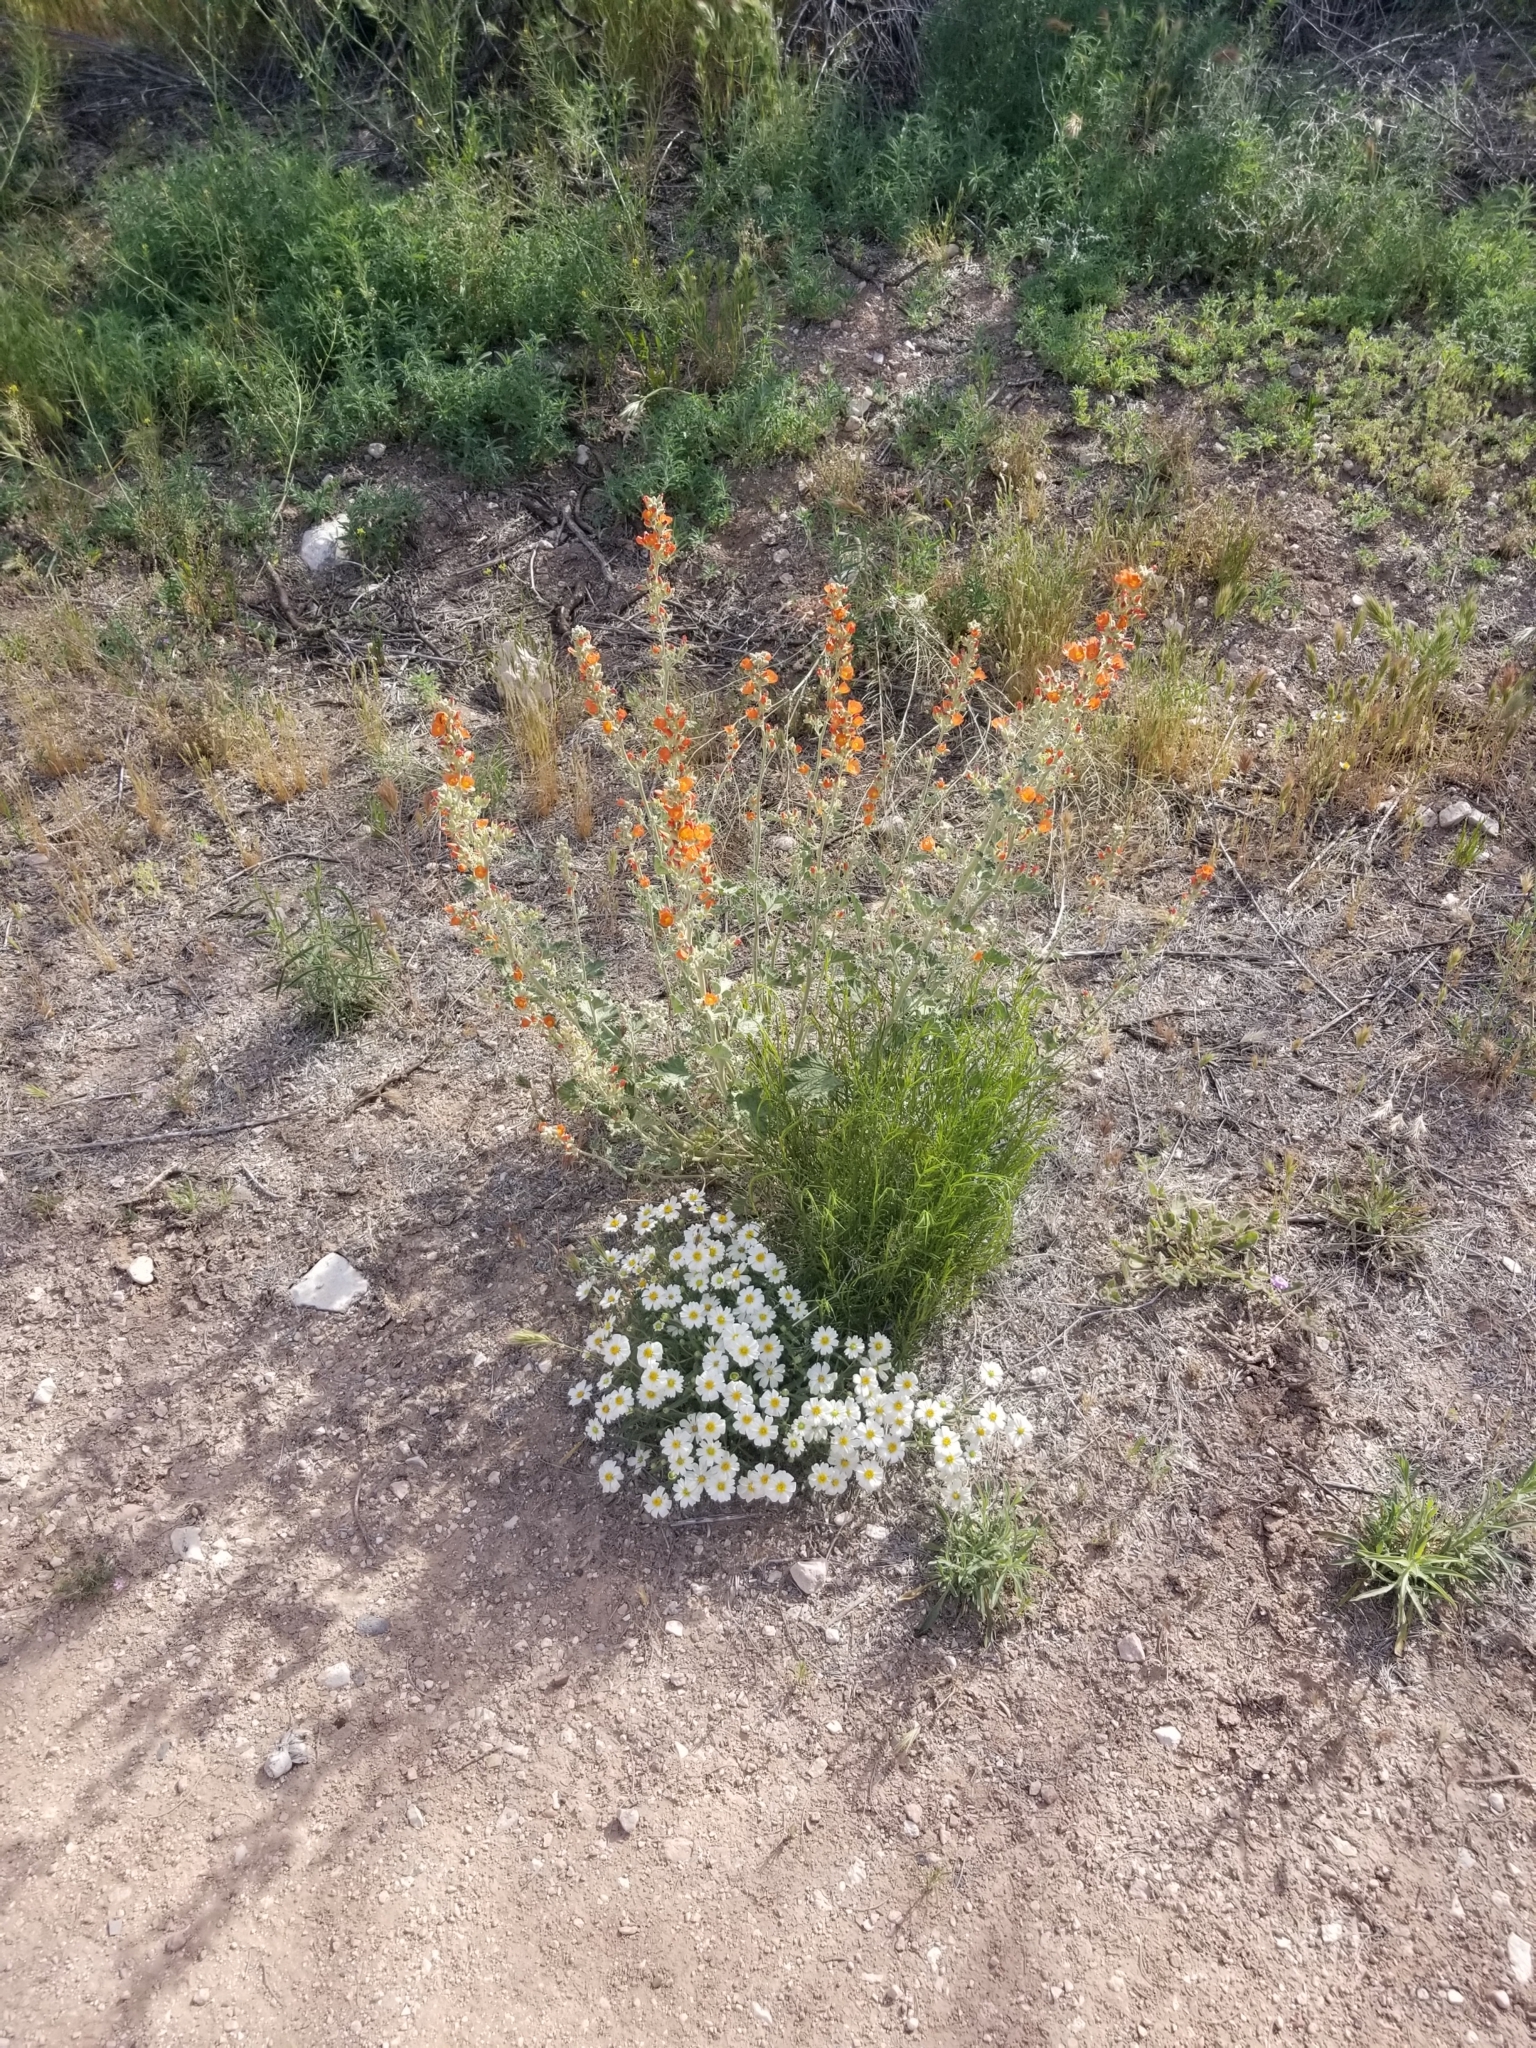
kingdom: Plantae
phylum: Tracheophyta
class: Magnoliopsida
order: Asterales
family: Asteraceae
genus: Melampodium
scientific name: Melampodium leucanthum
